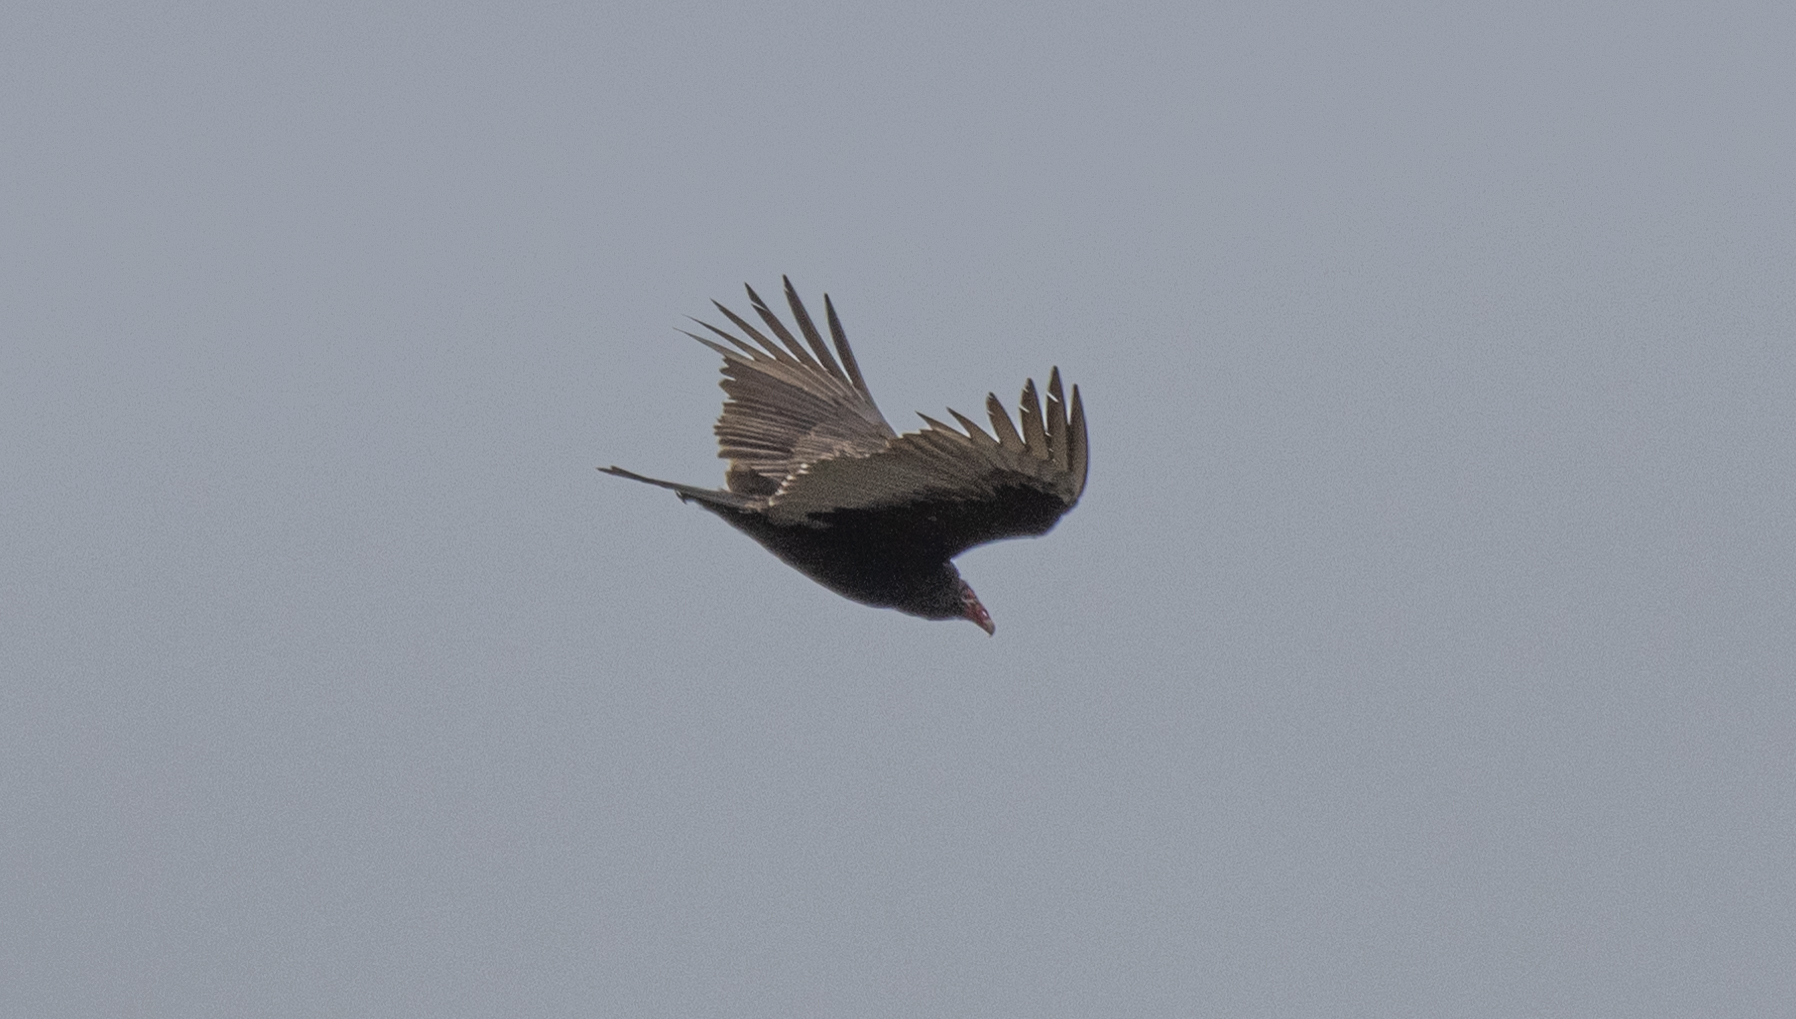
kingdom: Animalia
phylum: Chordata
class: Aves
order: Accipitriformes
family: Cathartidae
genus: Cathartes
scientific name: Cathartes aura
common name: Turkey vulture
